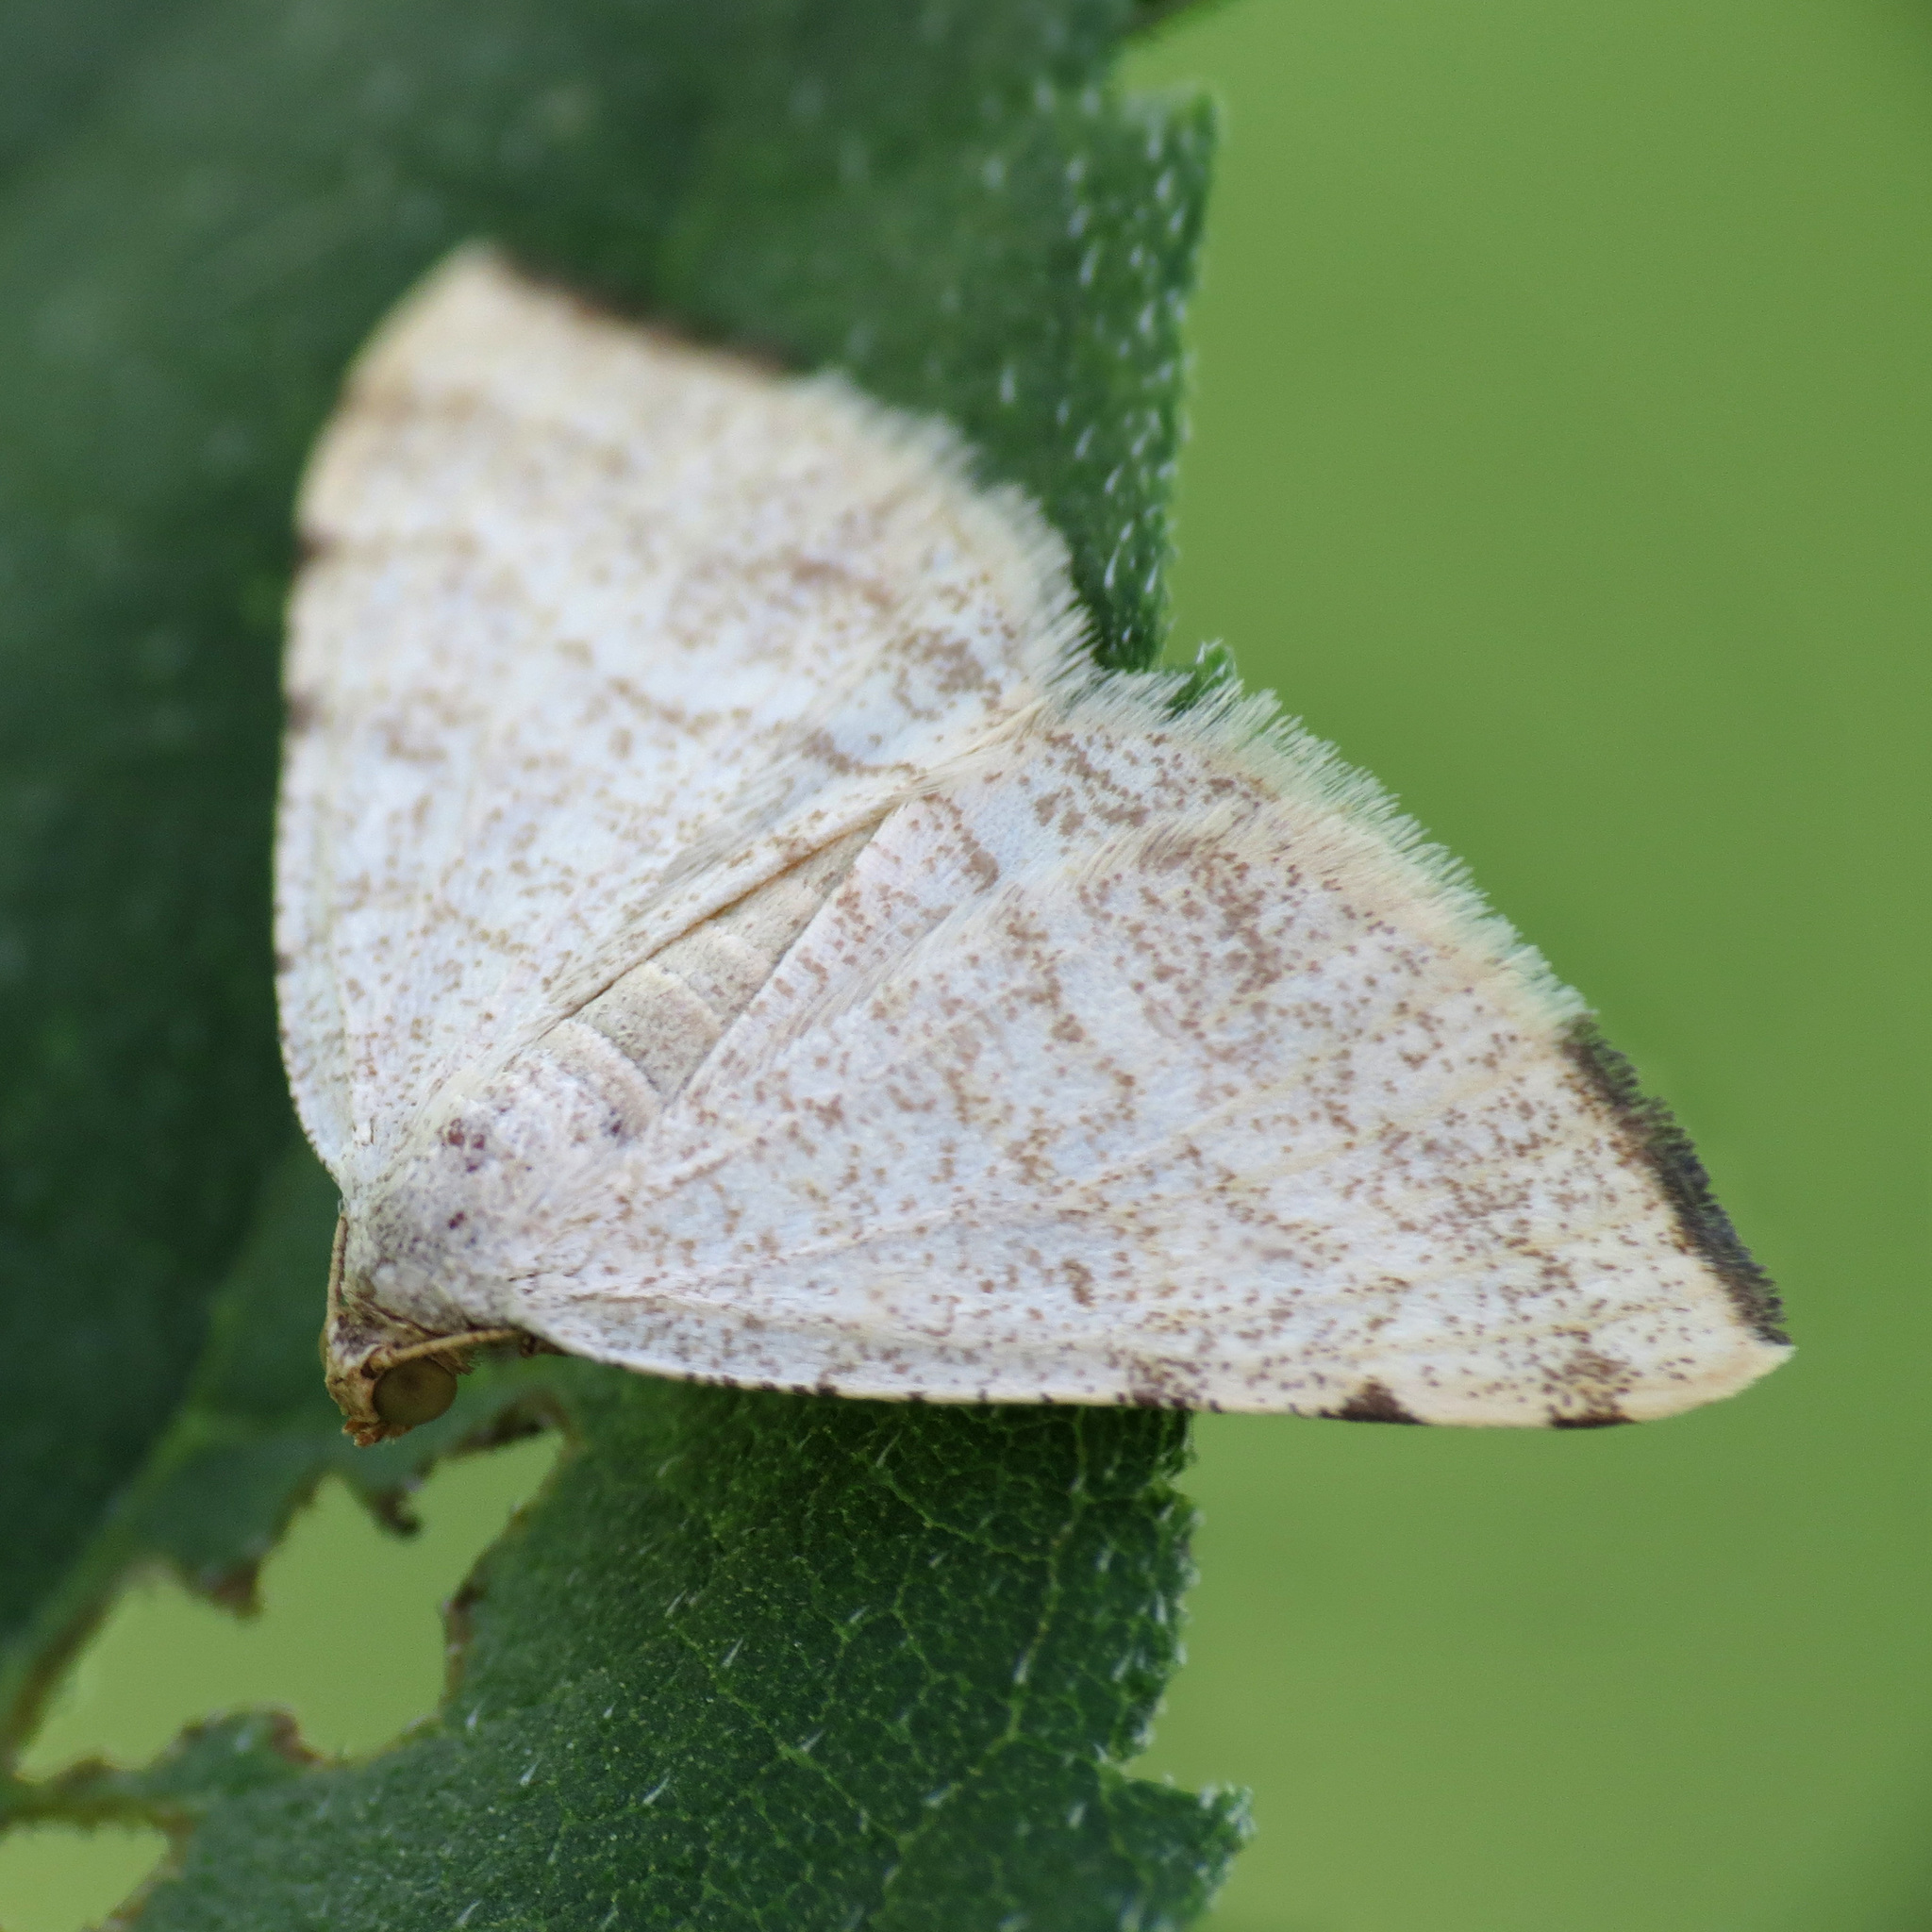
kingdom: Animalia
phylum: Arthropoda
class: Insecta
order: Lepidoptera
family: Geometridae
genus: Macaria
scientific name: Macaria octolineata
